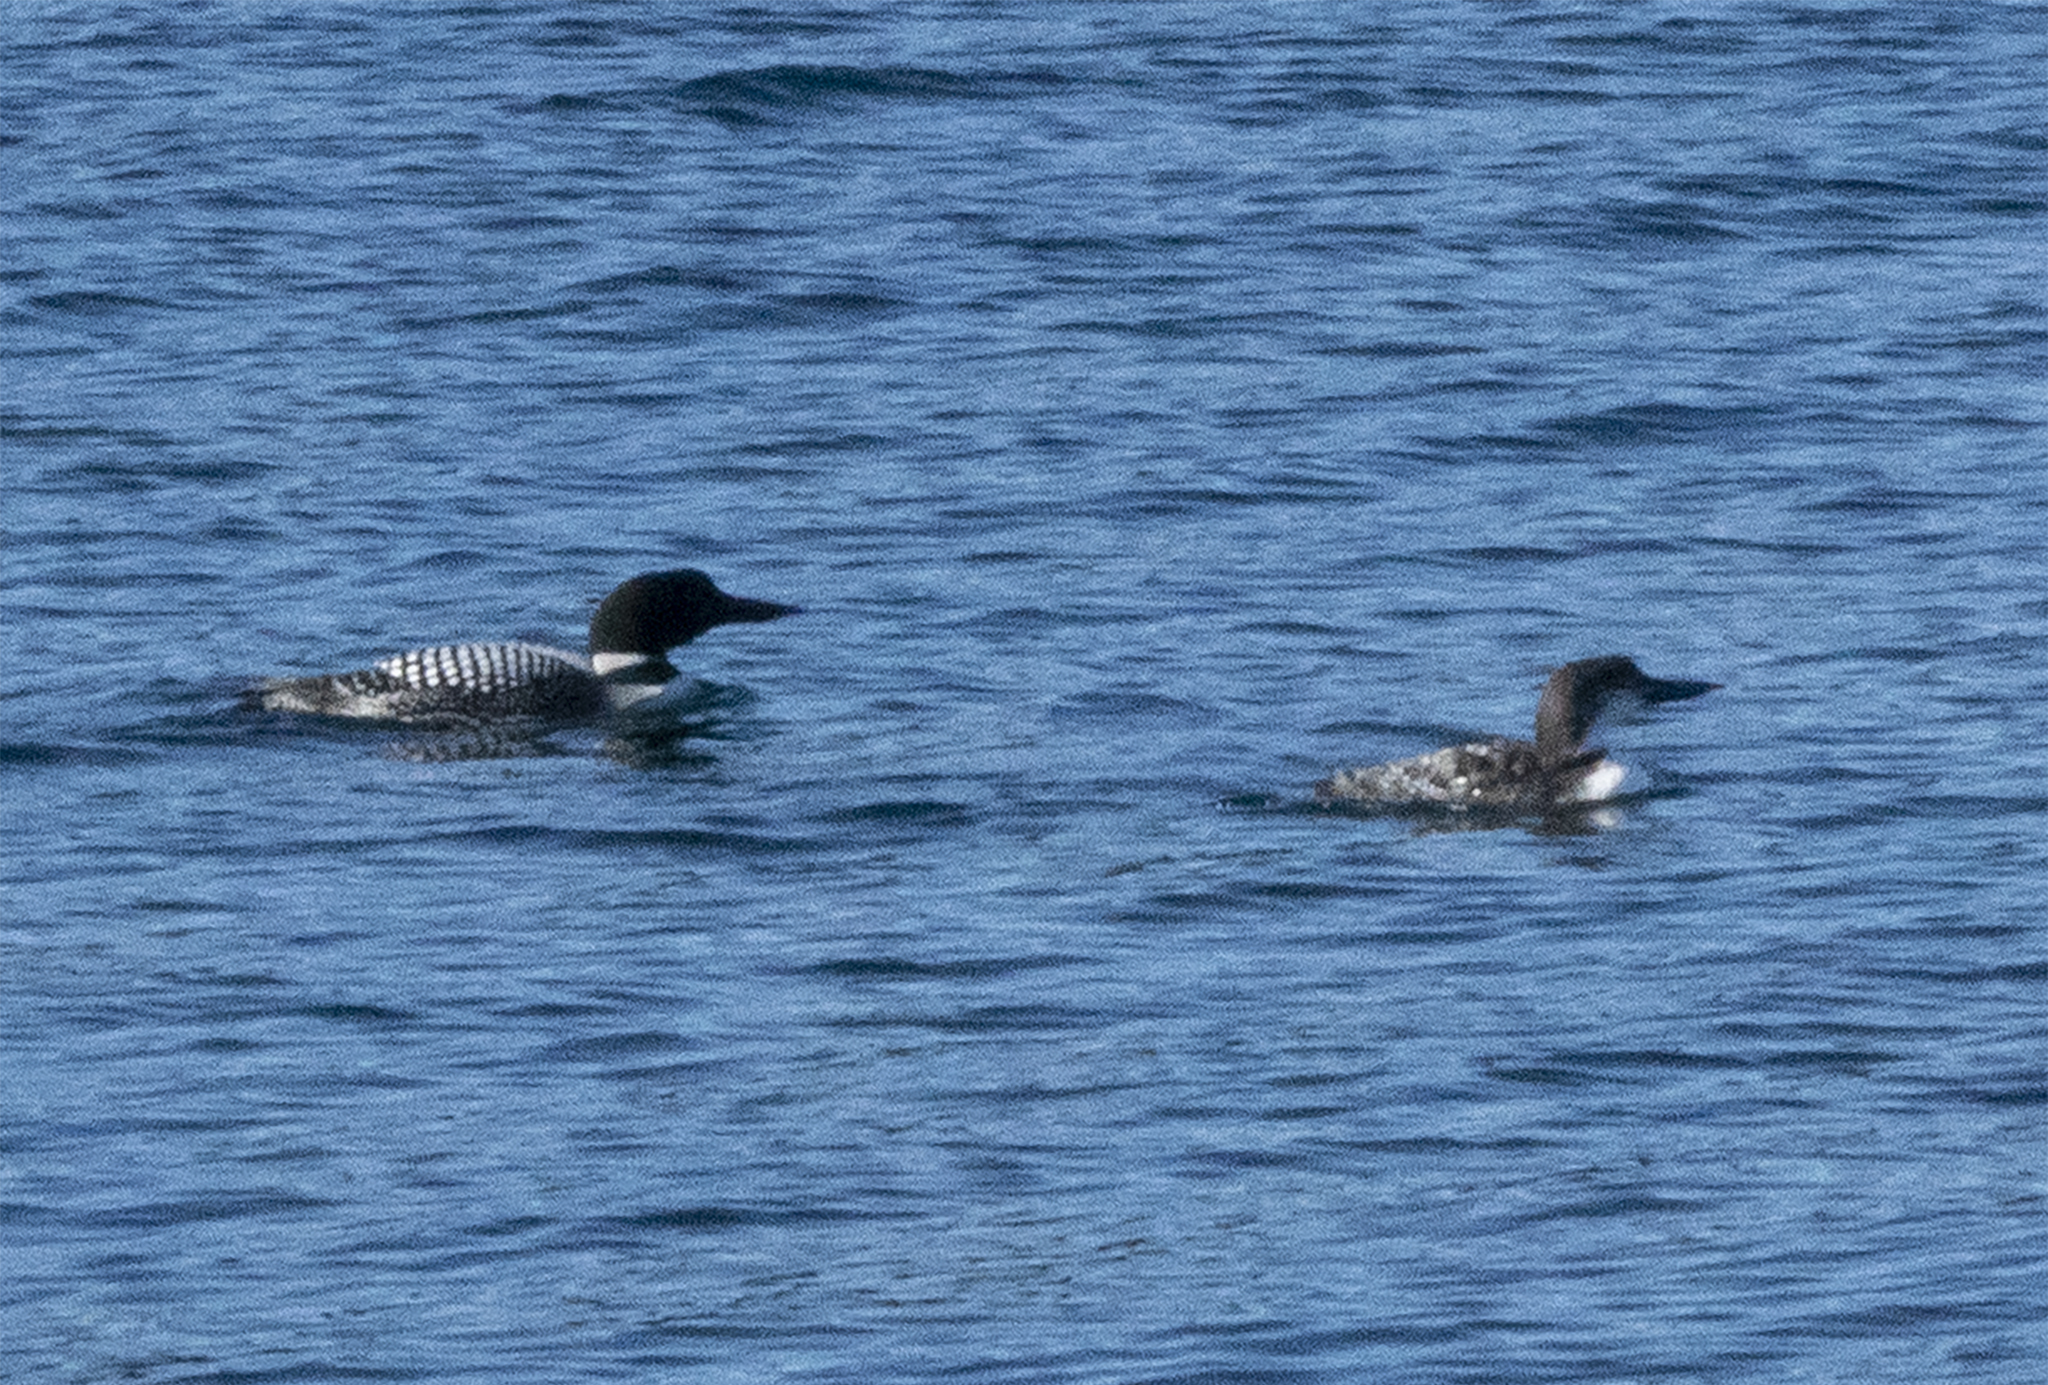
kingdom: Animalia
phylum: Chordata
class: Aves
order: Gaviiformes
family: Gaviidae
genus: Gavia
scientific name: Gavia immer
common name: Common loon
